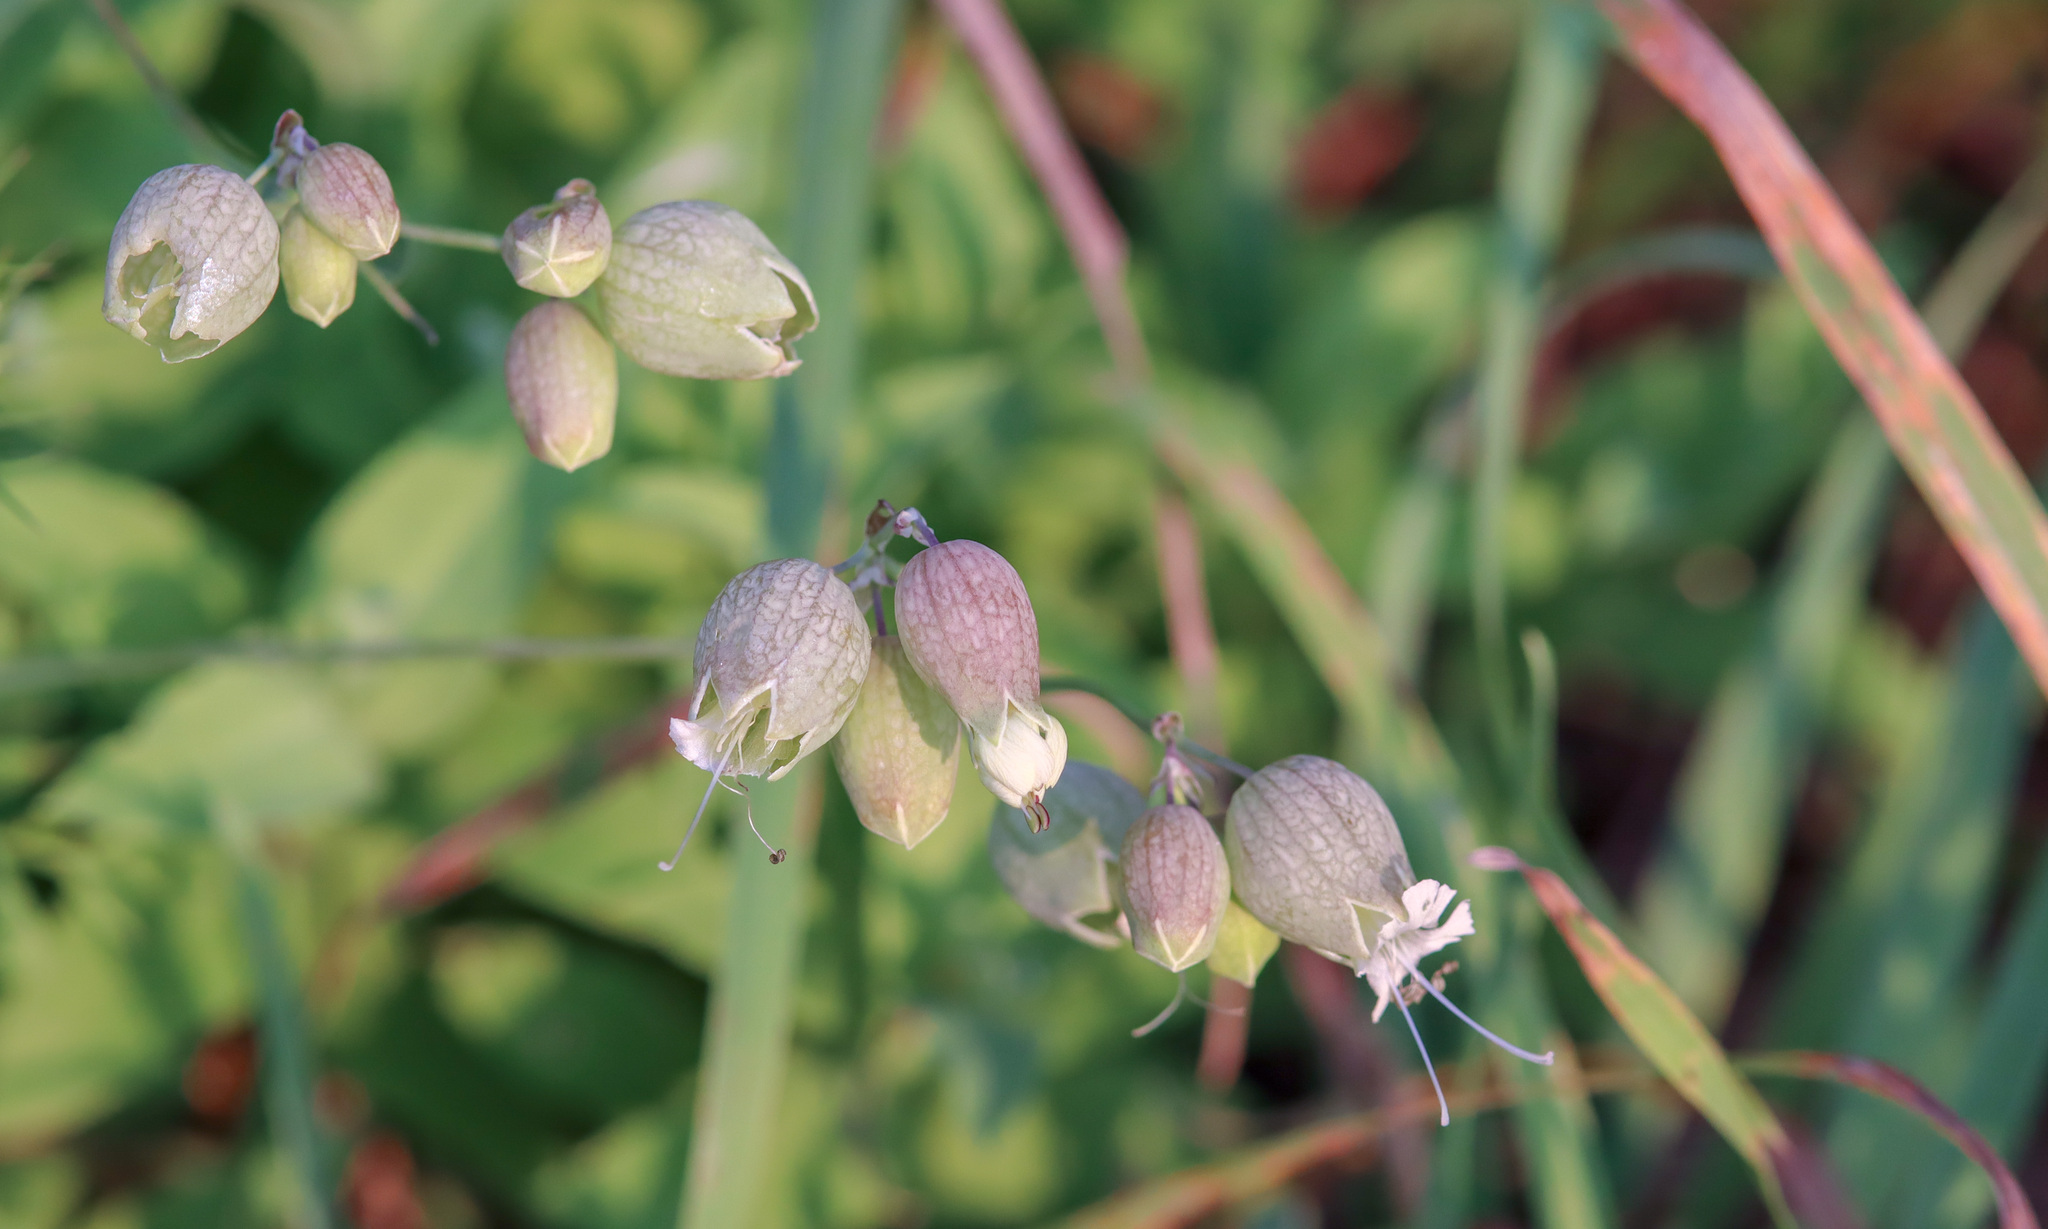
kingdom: Plantae
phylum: Tracheophyta
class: Magnoliopsida
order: Caryophyllales
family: Caryophyllaceae
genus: Silene
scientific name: Silene vulgaris
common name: Bladder campion
